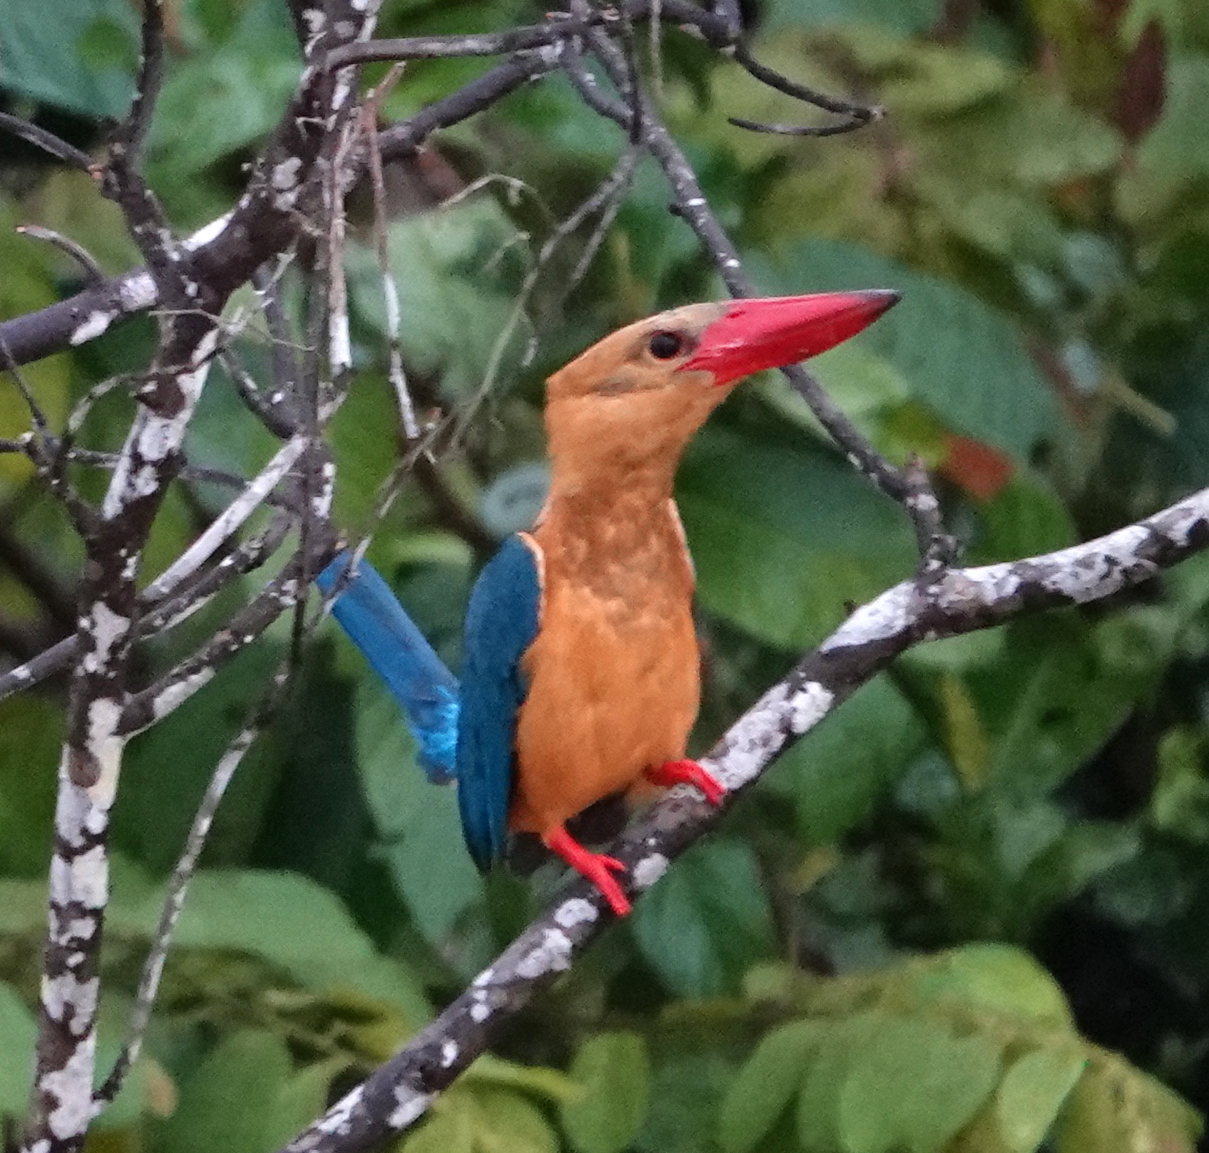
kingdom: Animalia
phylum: Chordata
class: Aves
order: Coraciiformes
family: Alcedinidae
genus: Pelargopsis
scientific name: Pelargopsis capensis
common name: Stork-billed kingfisher
